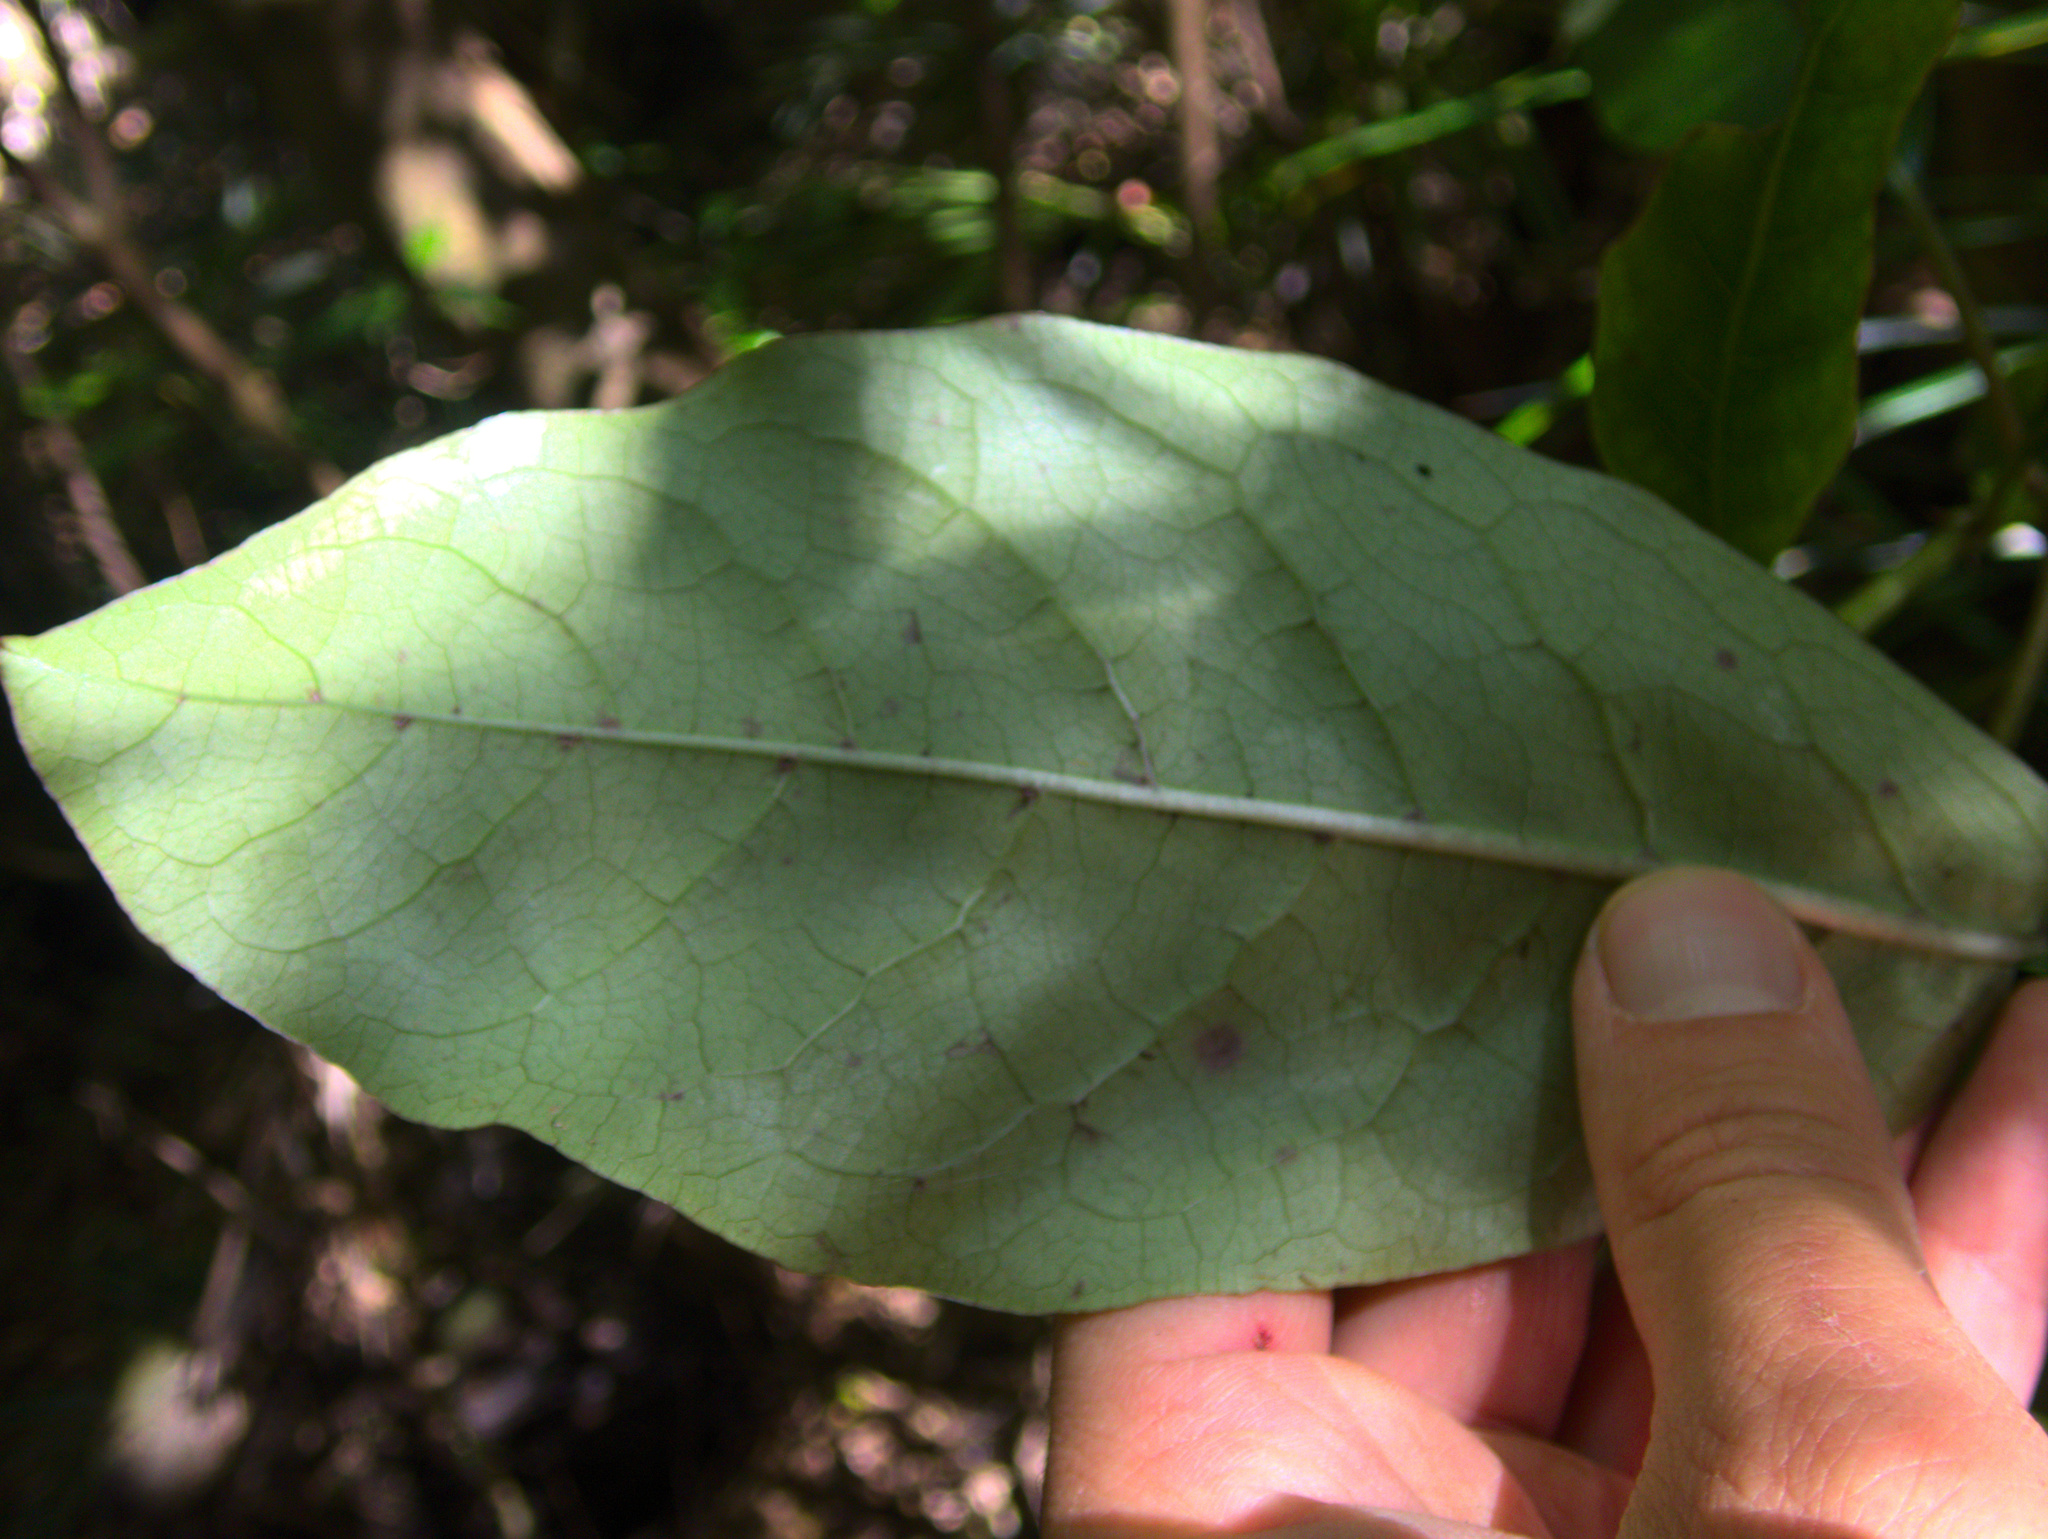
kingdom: Plantae
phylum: Tracheophyta
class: Magnoliopsida
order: Gentianales
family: Rubiaceae
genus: Coprosma
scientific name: Coprosma autumnalis
